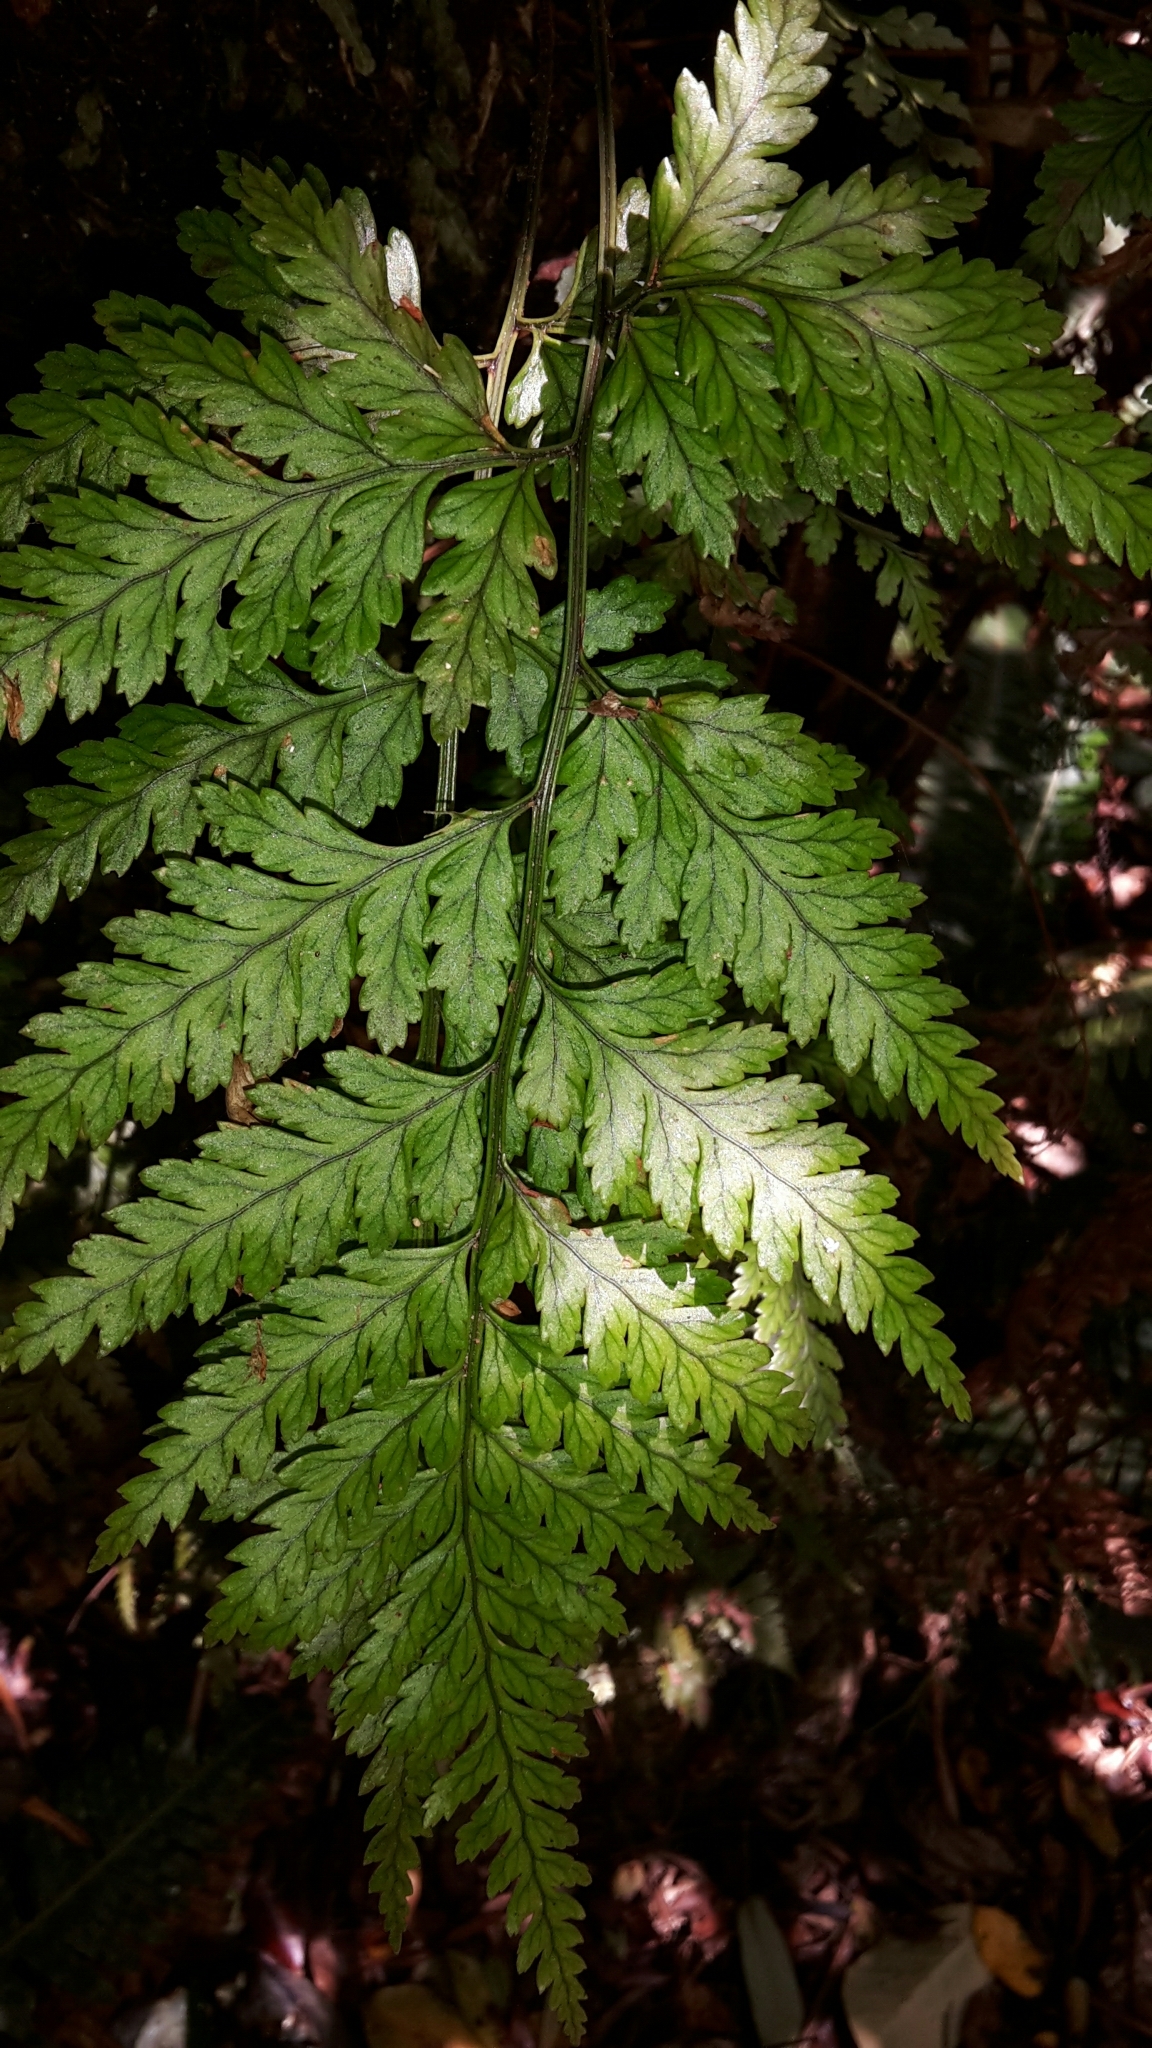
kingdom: Plantae
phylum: Tracheophyta
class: Polypodiopsida
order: Polypodiales
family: Dryopteridaceae
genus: Rumohra
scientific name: Rumohra adiantiformis
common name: Leather fern
